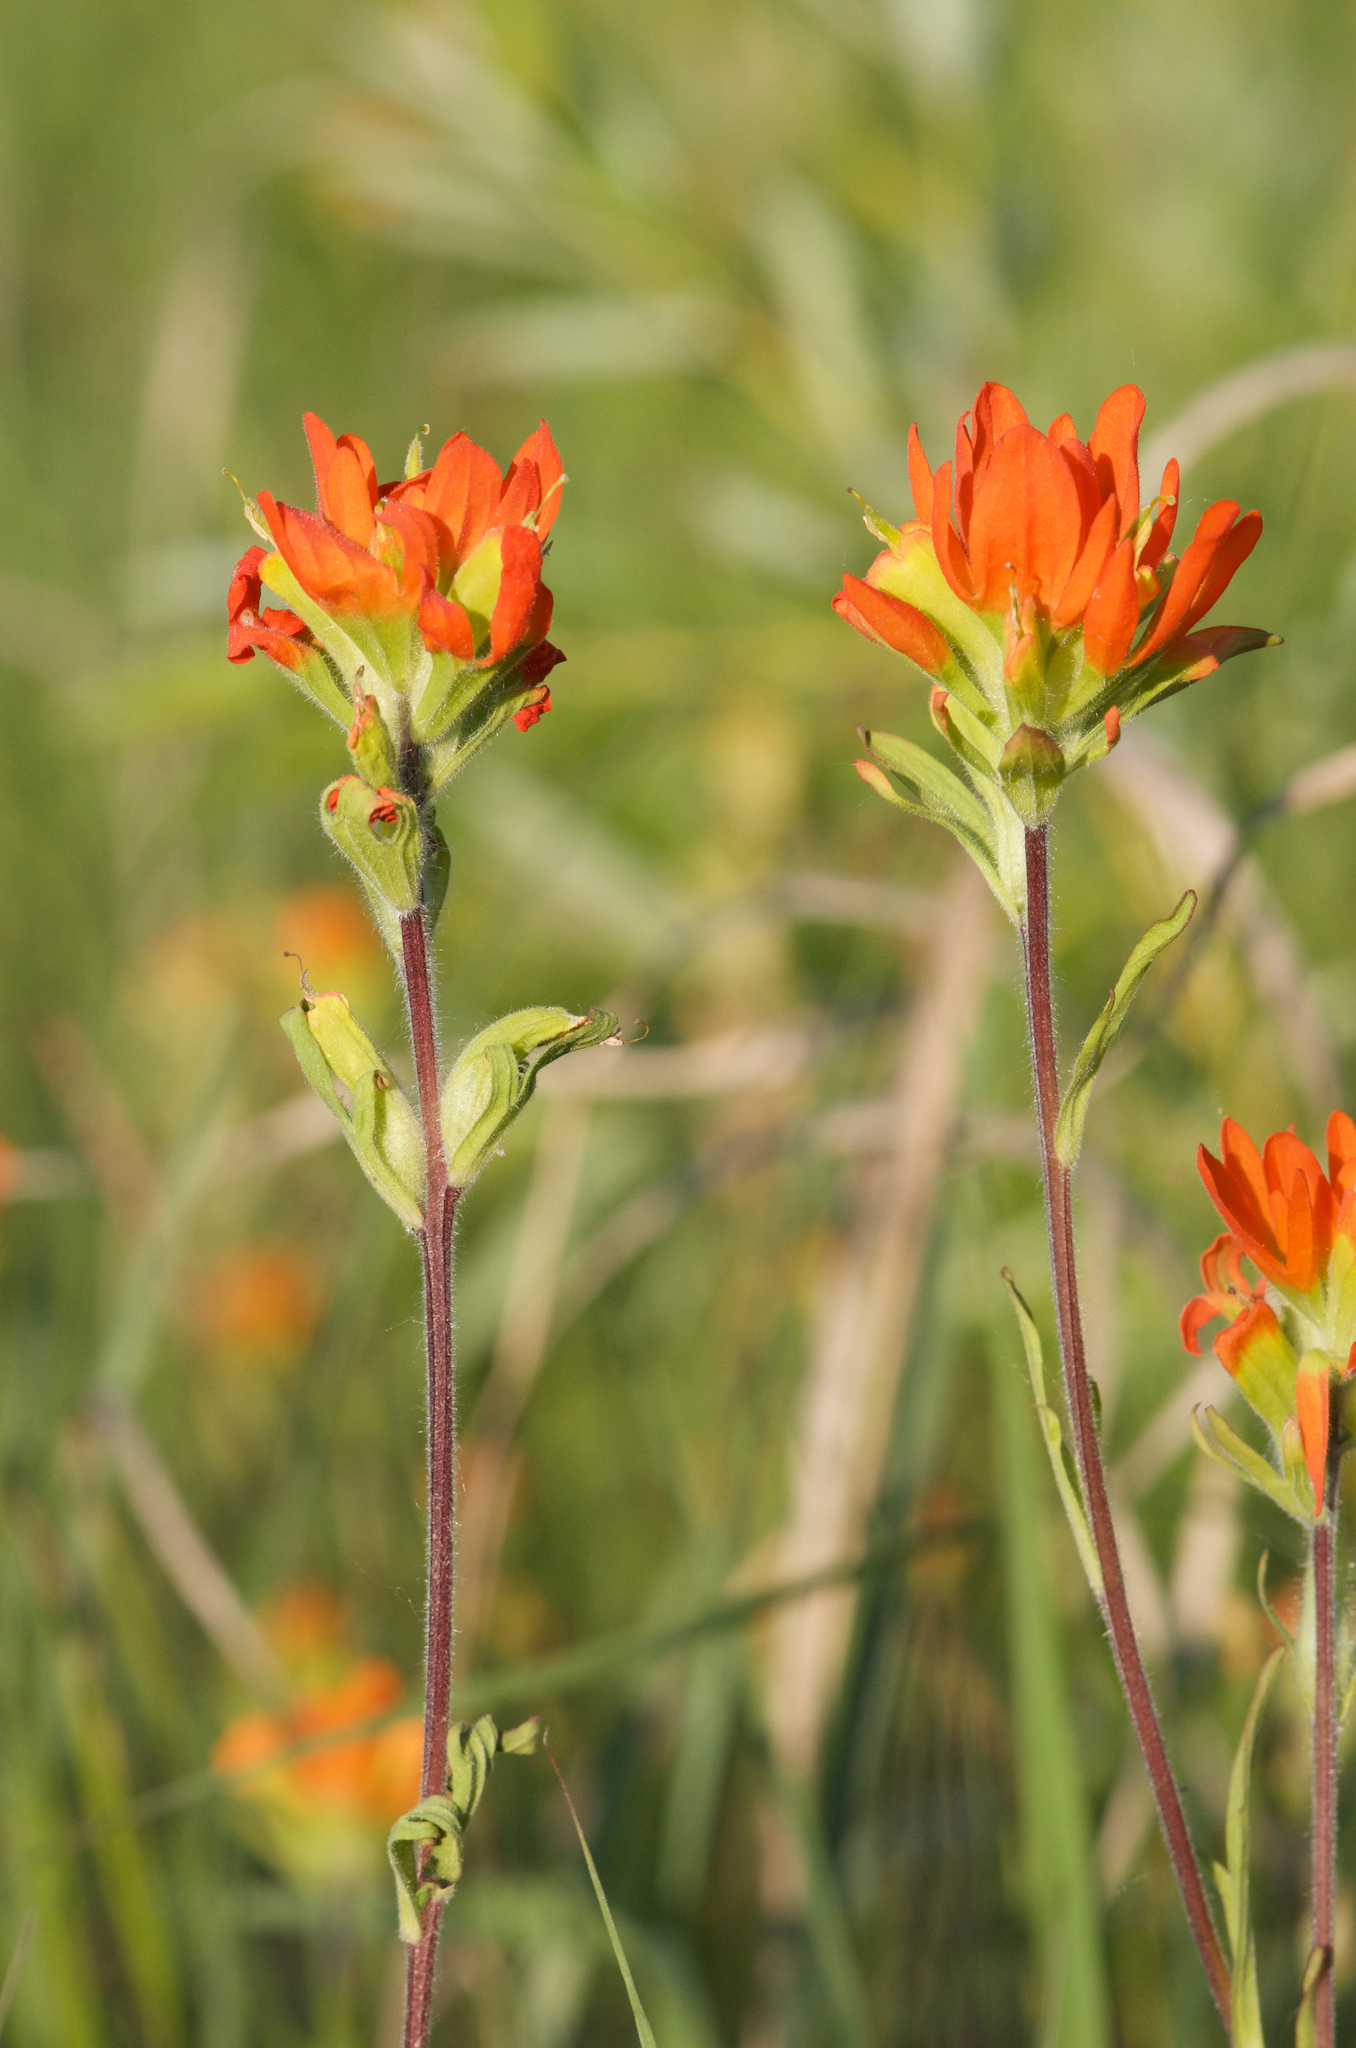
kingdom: Plantae
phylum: Tracheophyta
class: Magnoliopsida
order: Lamiales
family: Orobanchaceae
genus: Castilleja
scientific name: Castilleja coccinea
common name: Scarlet paintbrush
